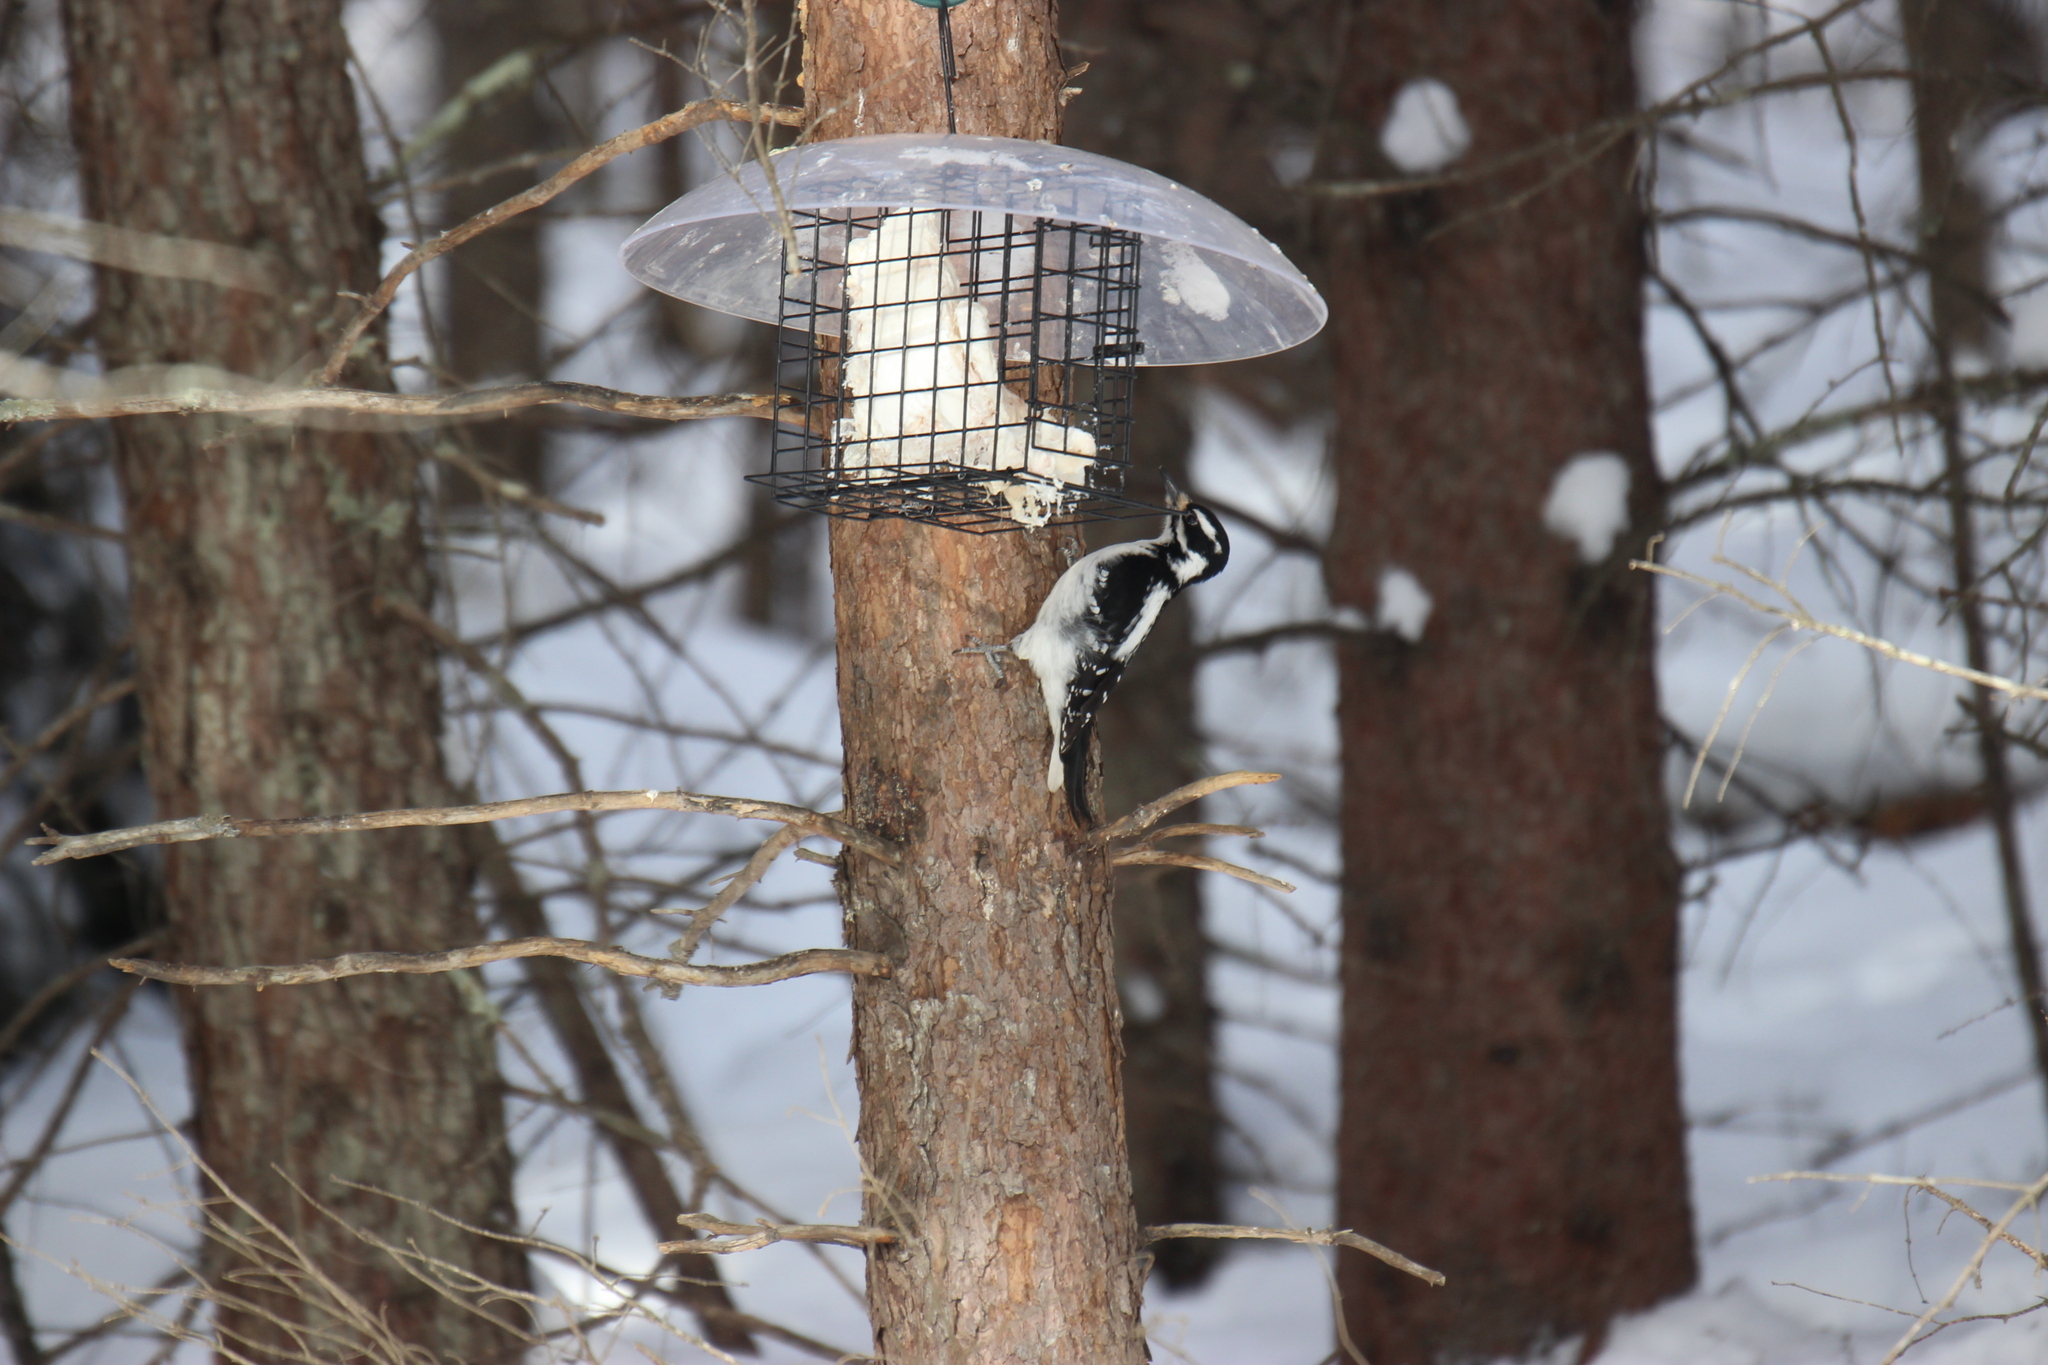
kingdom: Animalia
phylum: Chordata
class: Aves
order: Piciformes
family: Picidae
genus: Leuconotopicus
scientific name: Leuconotopicus villosus
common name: Hairy woodpecker
